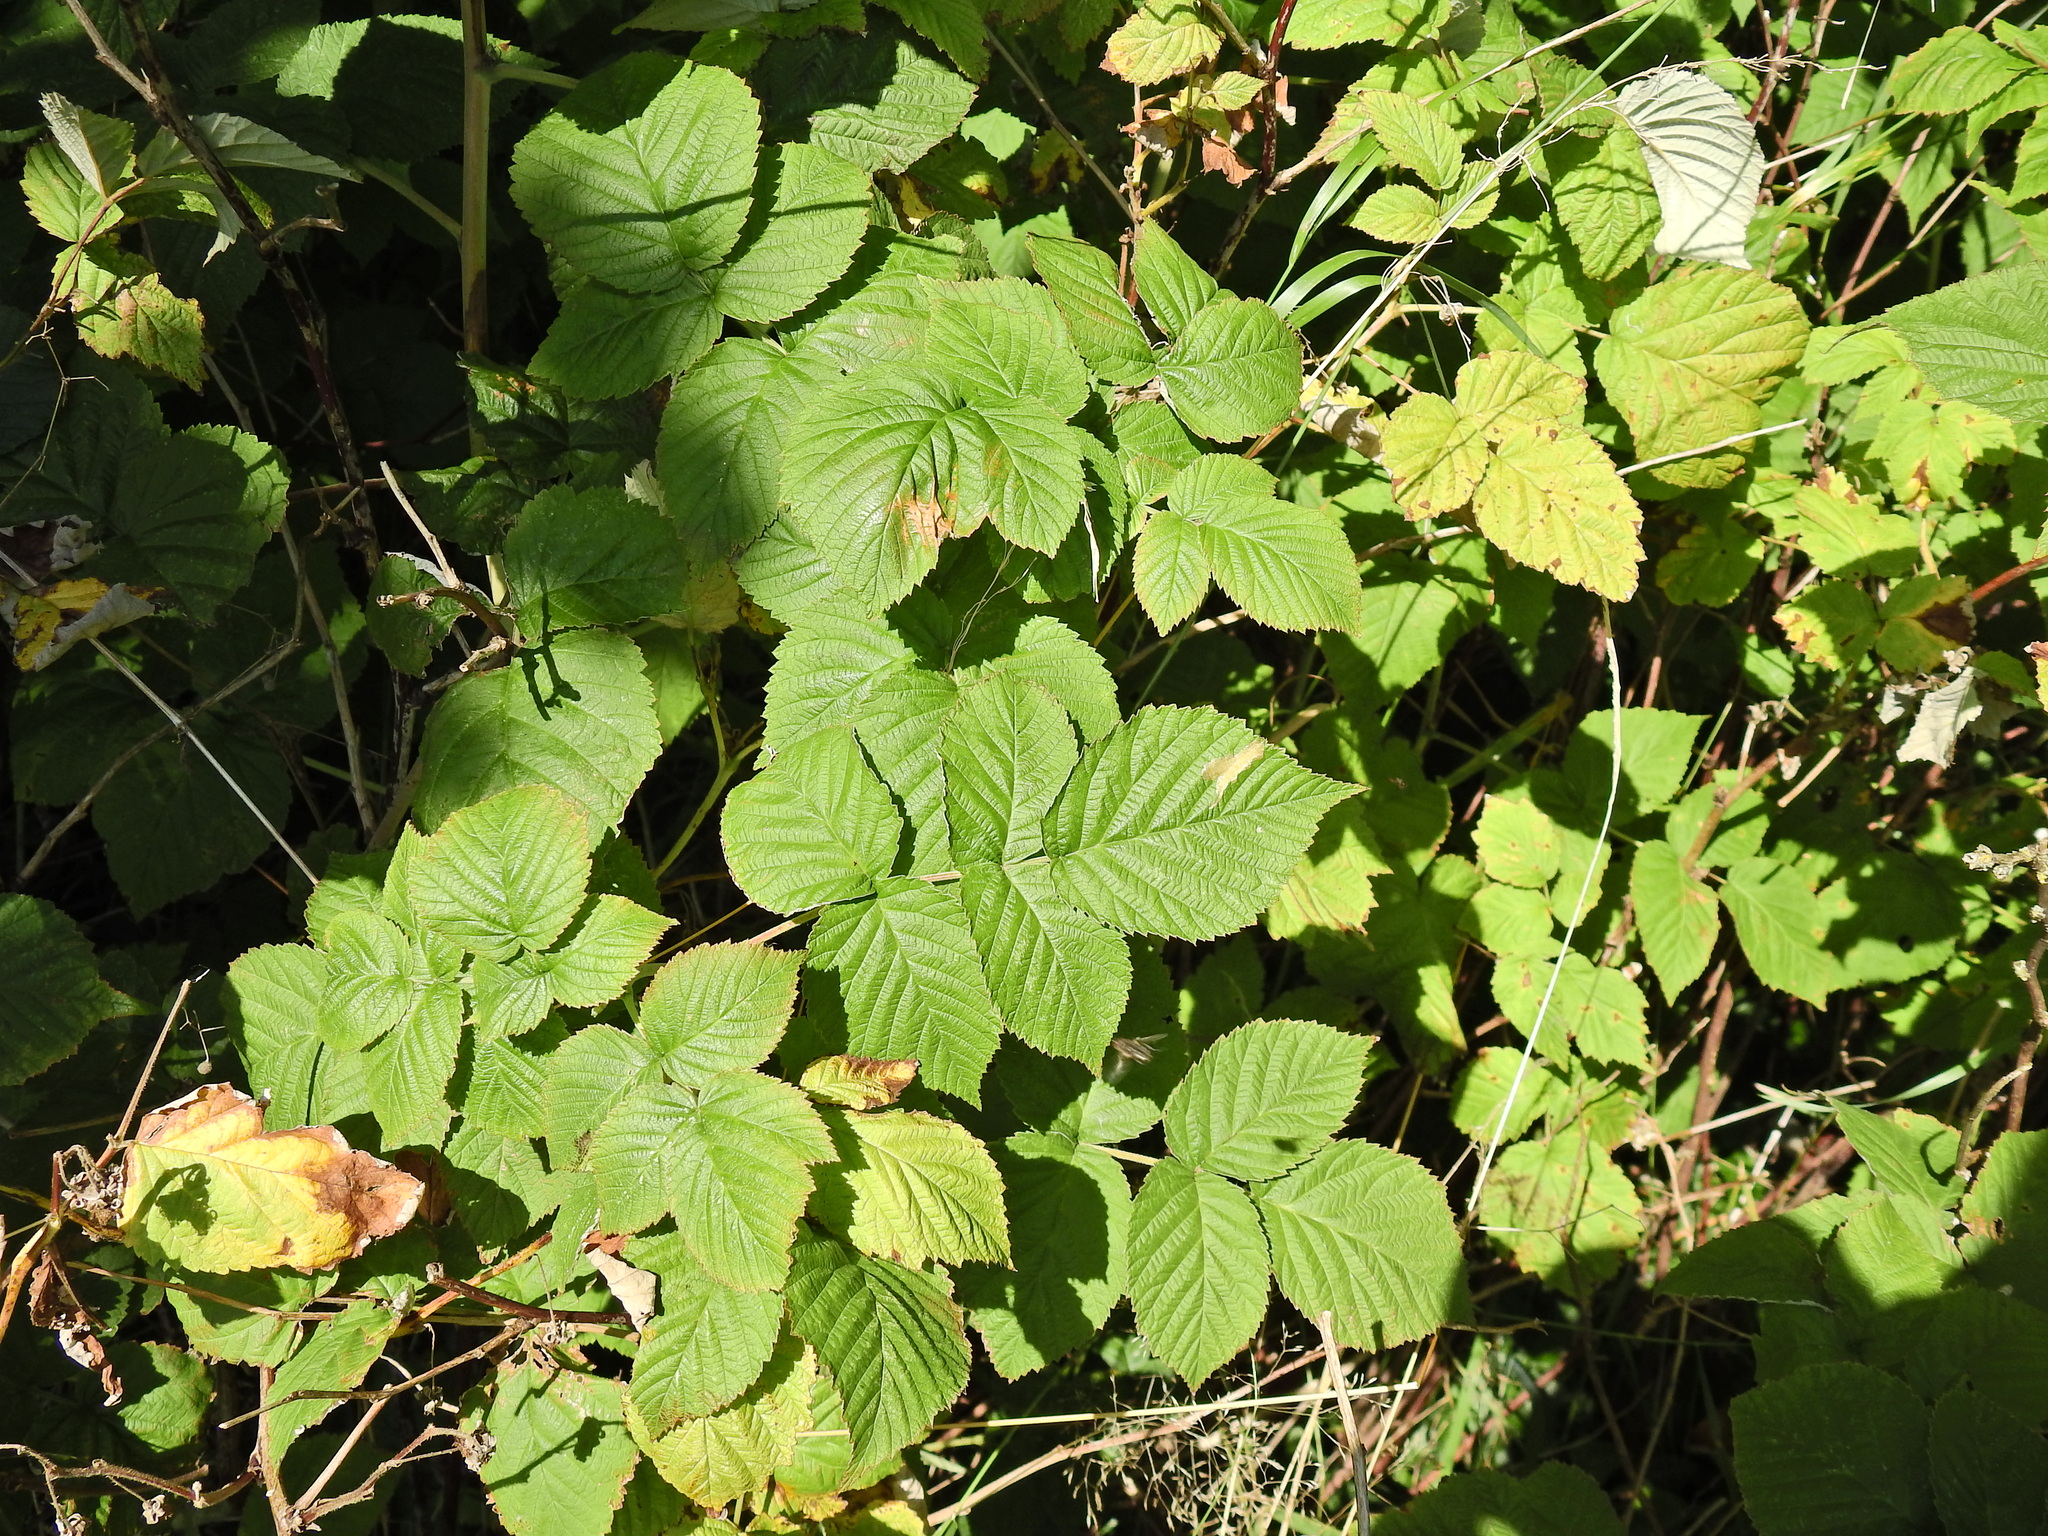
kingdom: Plantae
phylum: Tracheophyta
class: Magnoliopsida
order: Rosales
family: Rosaceae
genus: Rubus
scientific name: Rubus idaeus
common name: Raspberry
